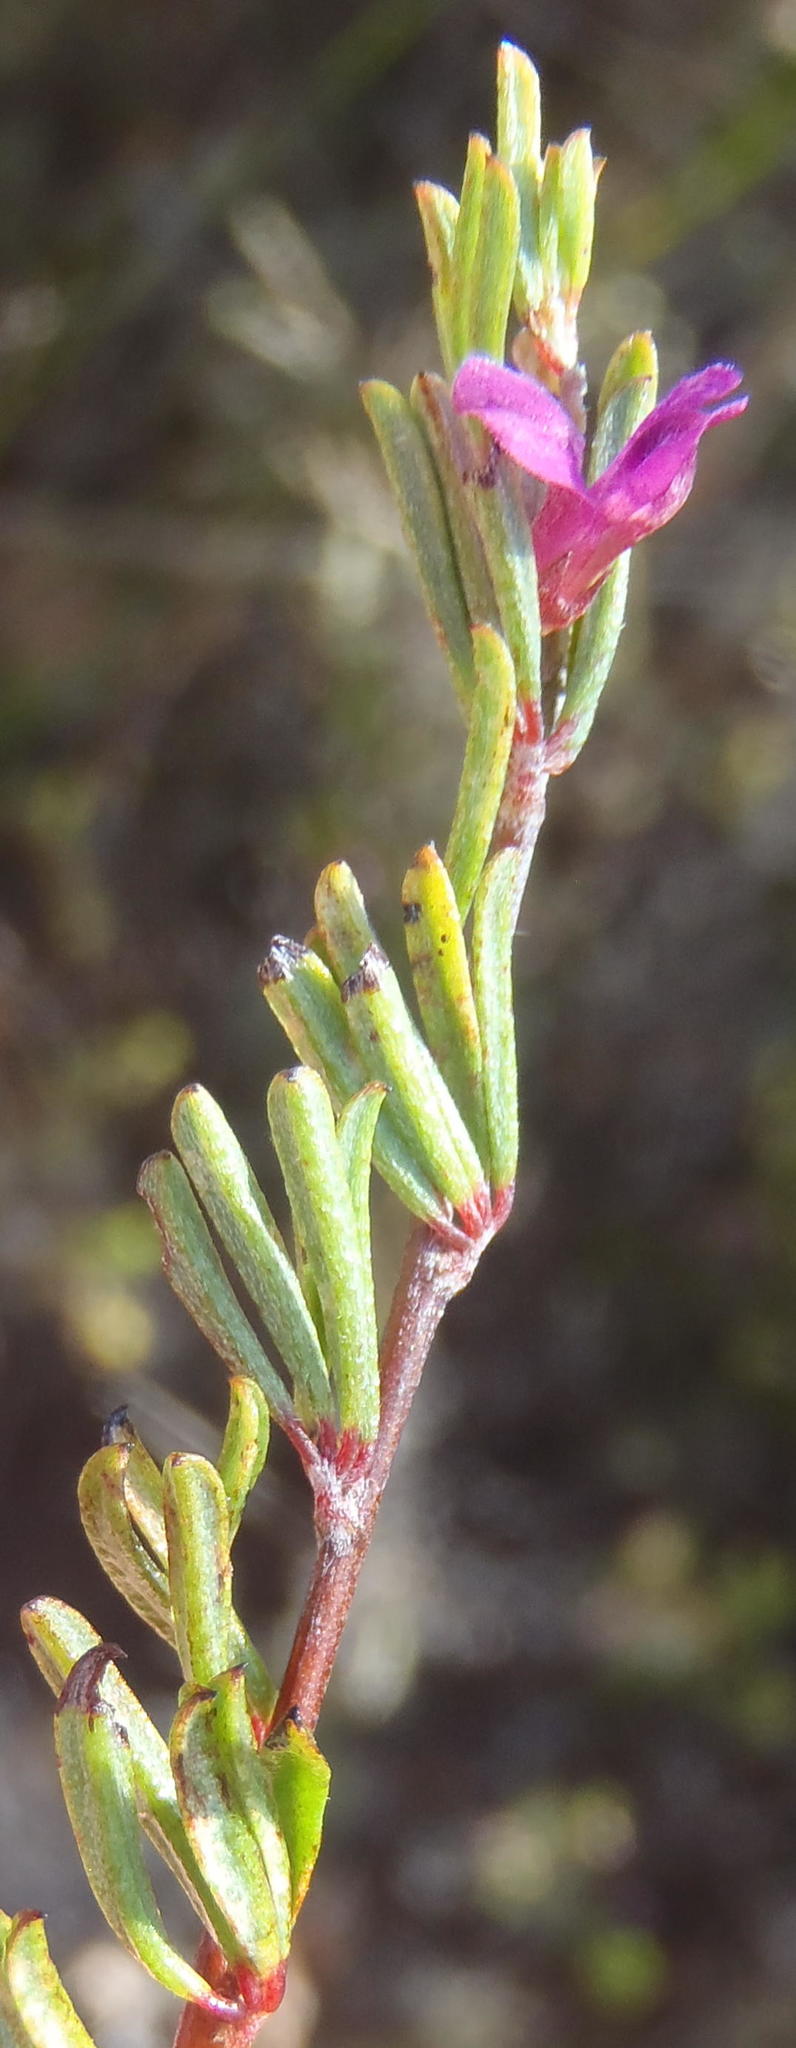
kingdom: Plantae
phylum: Tracheophyta
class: Magnoliopsida
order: Fabales
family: Fabaceae
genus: Indigofera
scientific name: Indigofera pappei
